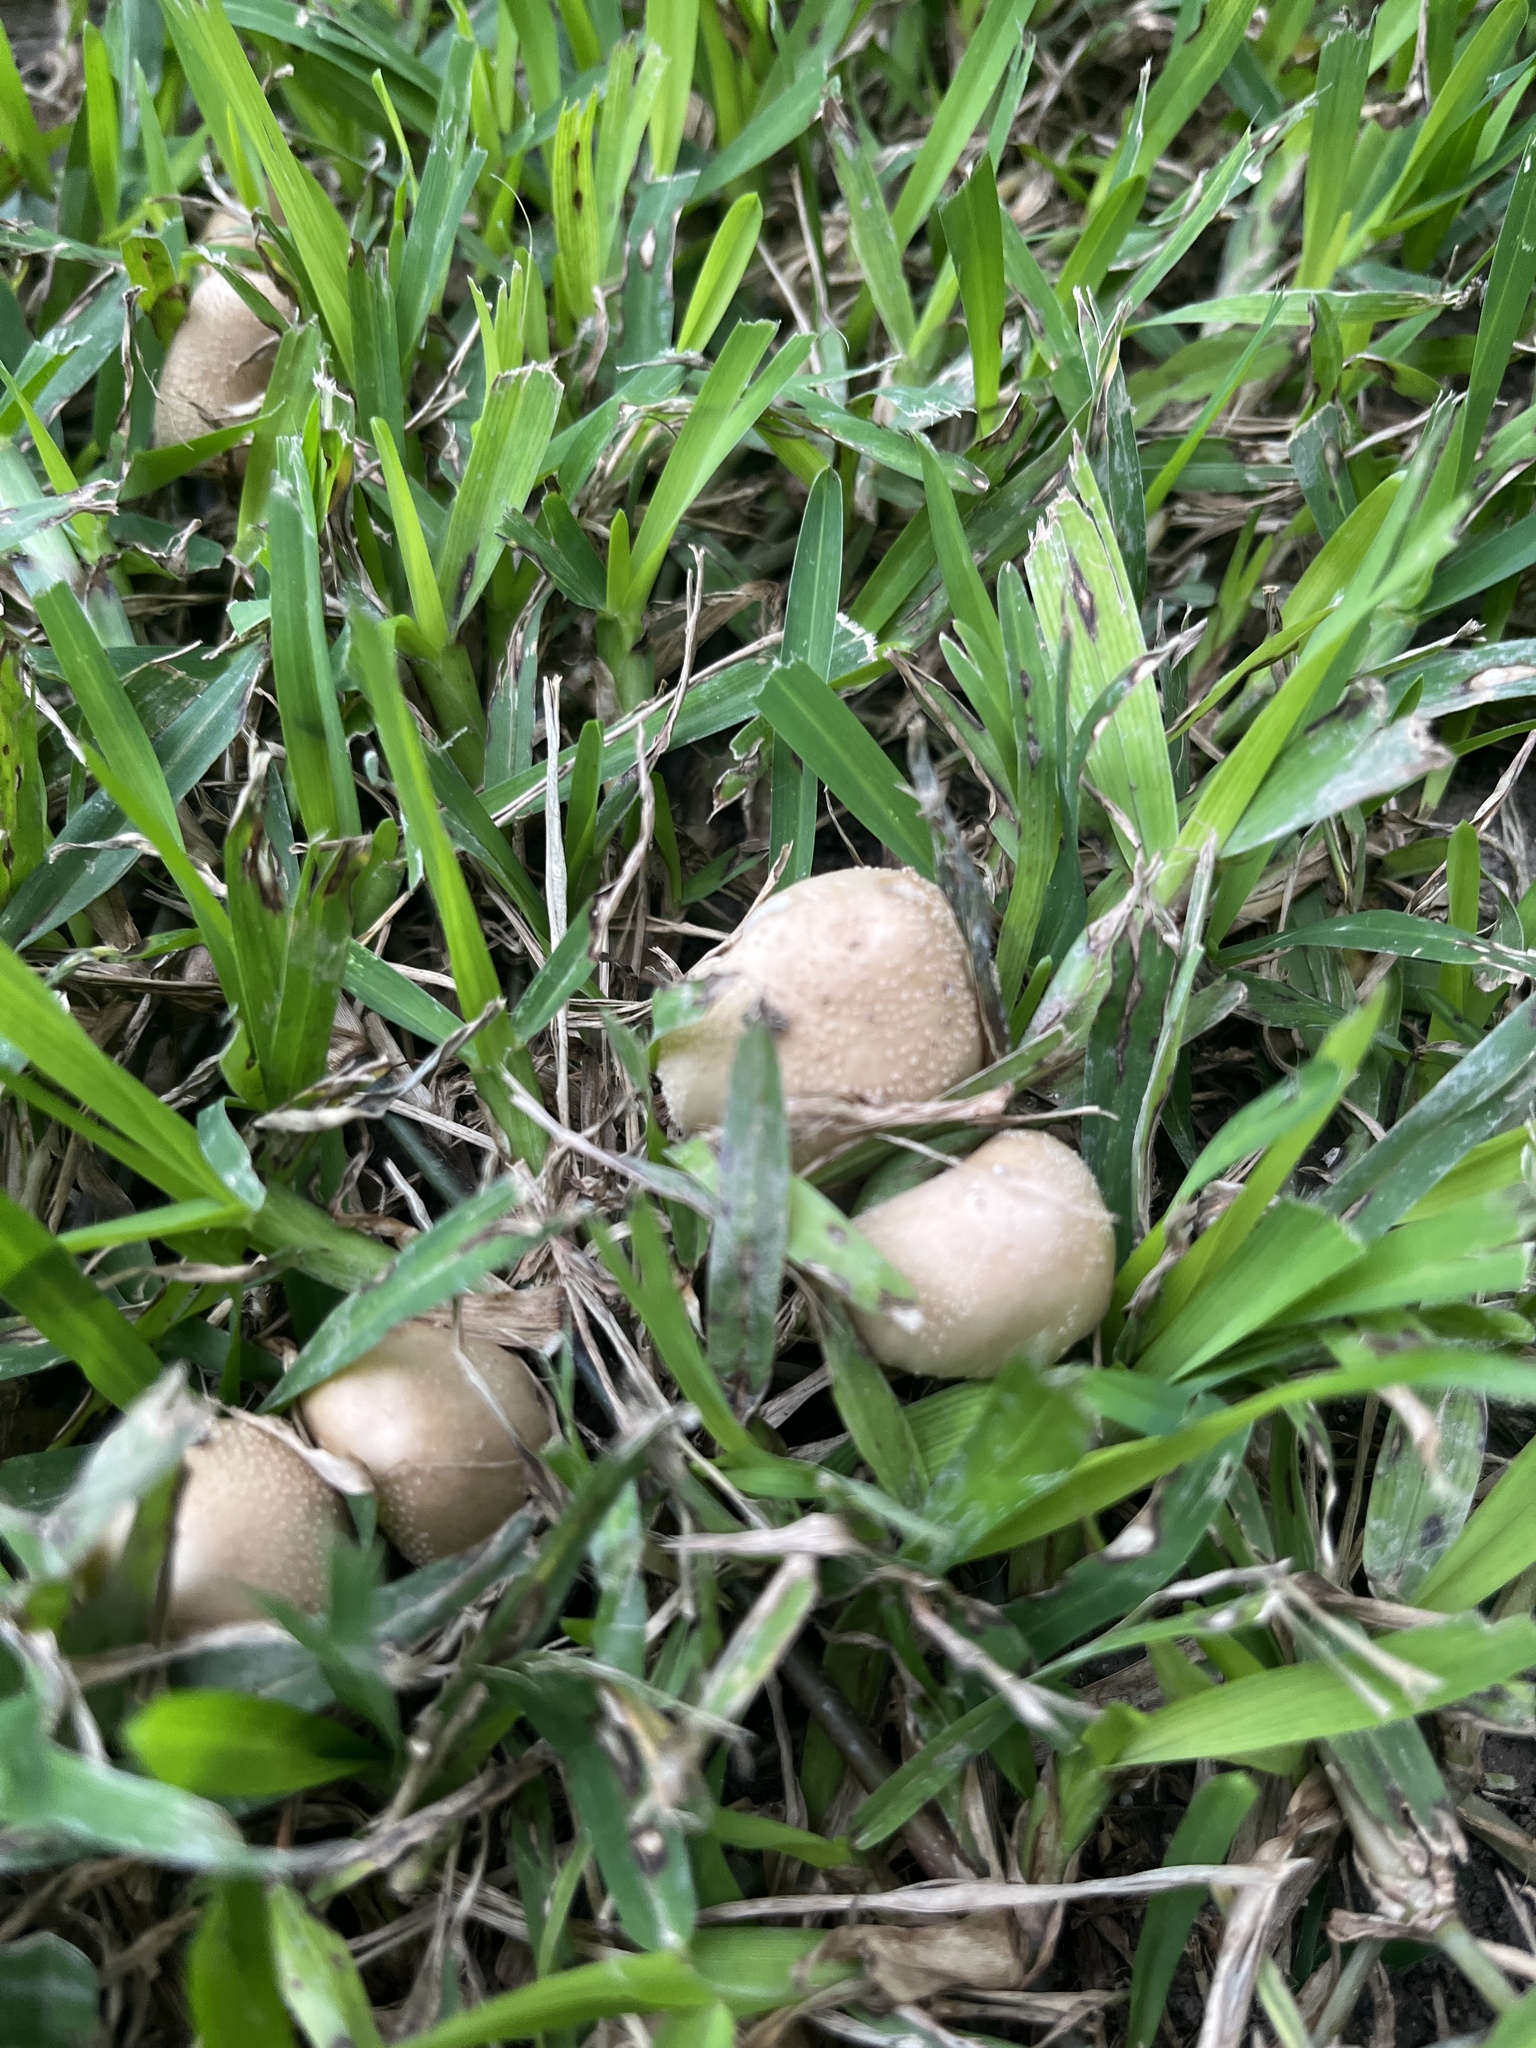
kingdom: Fungi
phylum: Basidiomycota
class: Agaricomycetes
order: Agaricales
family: Psathyrellaceae
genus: Candolleomyces
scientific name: Candolleomyces candolleanus
